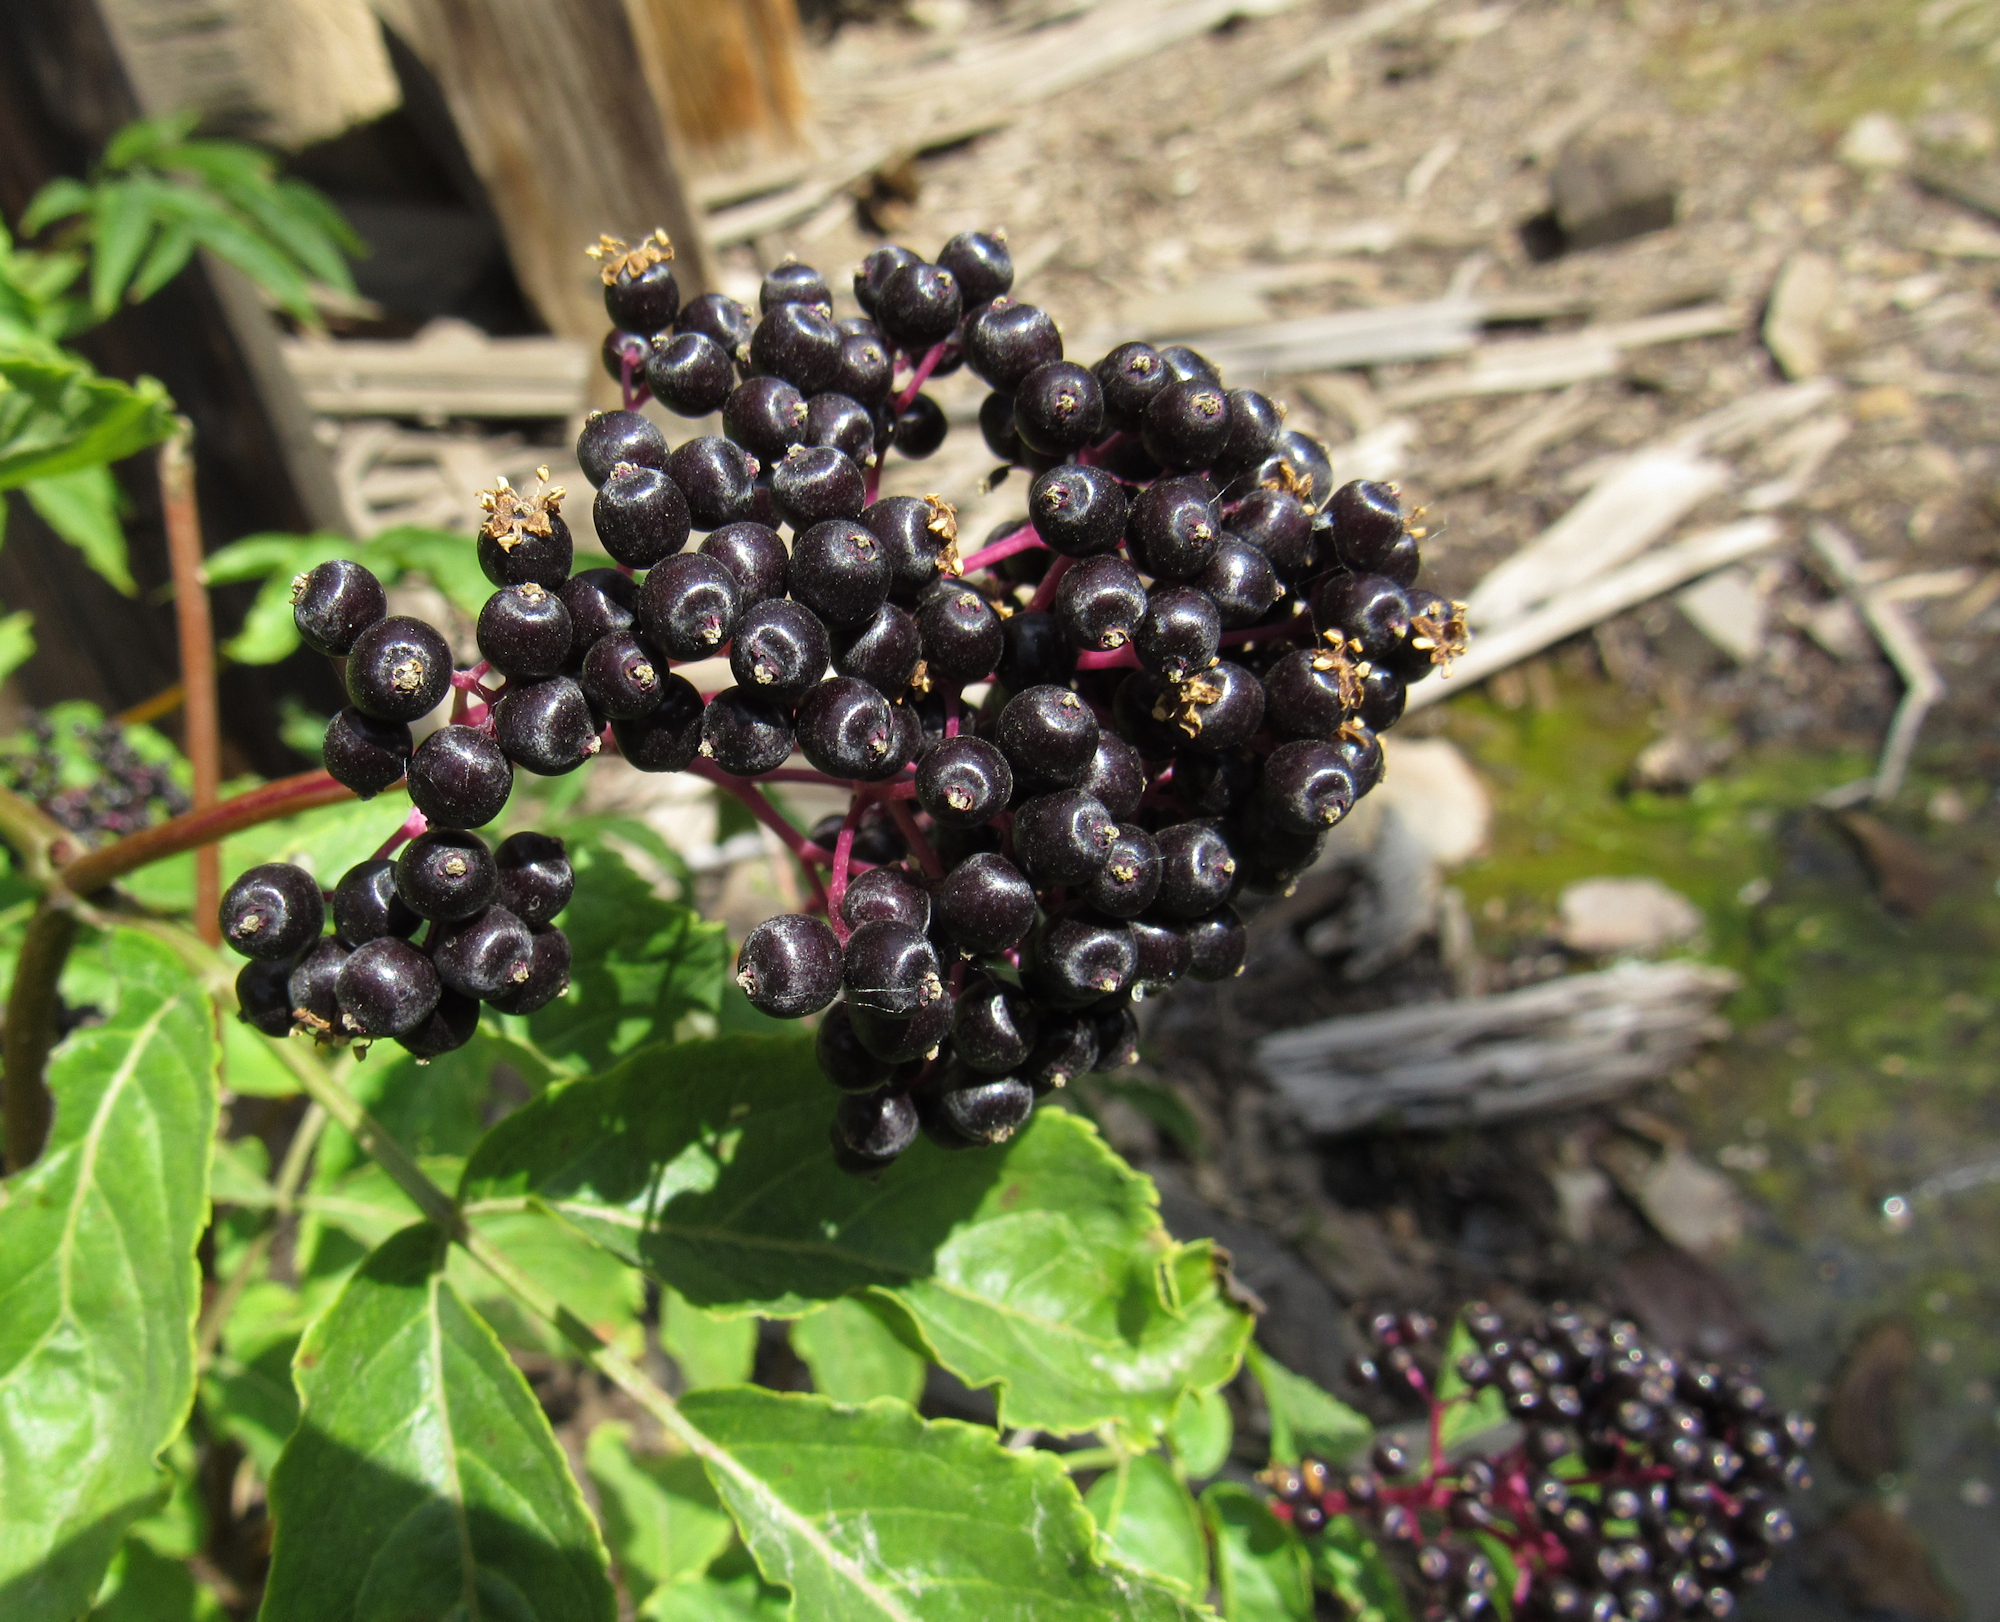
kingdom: Plantae
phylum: Tracheophyta
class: Magnoliopsida
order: Dipsacales
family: Viburnaceae
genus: Sambucus
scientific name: Sambucus racemosa
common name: Red-berried elder
